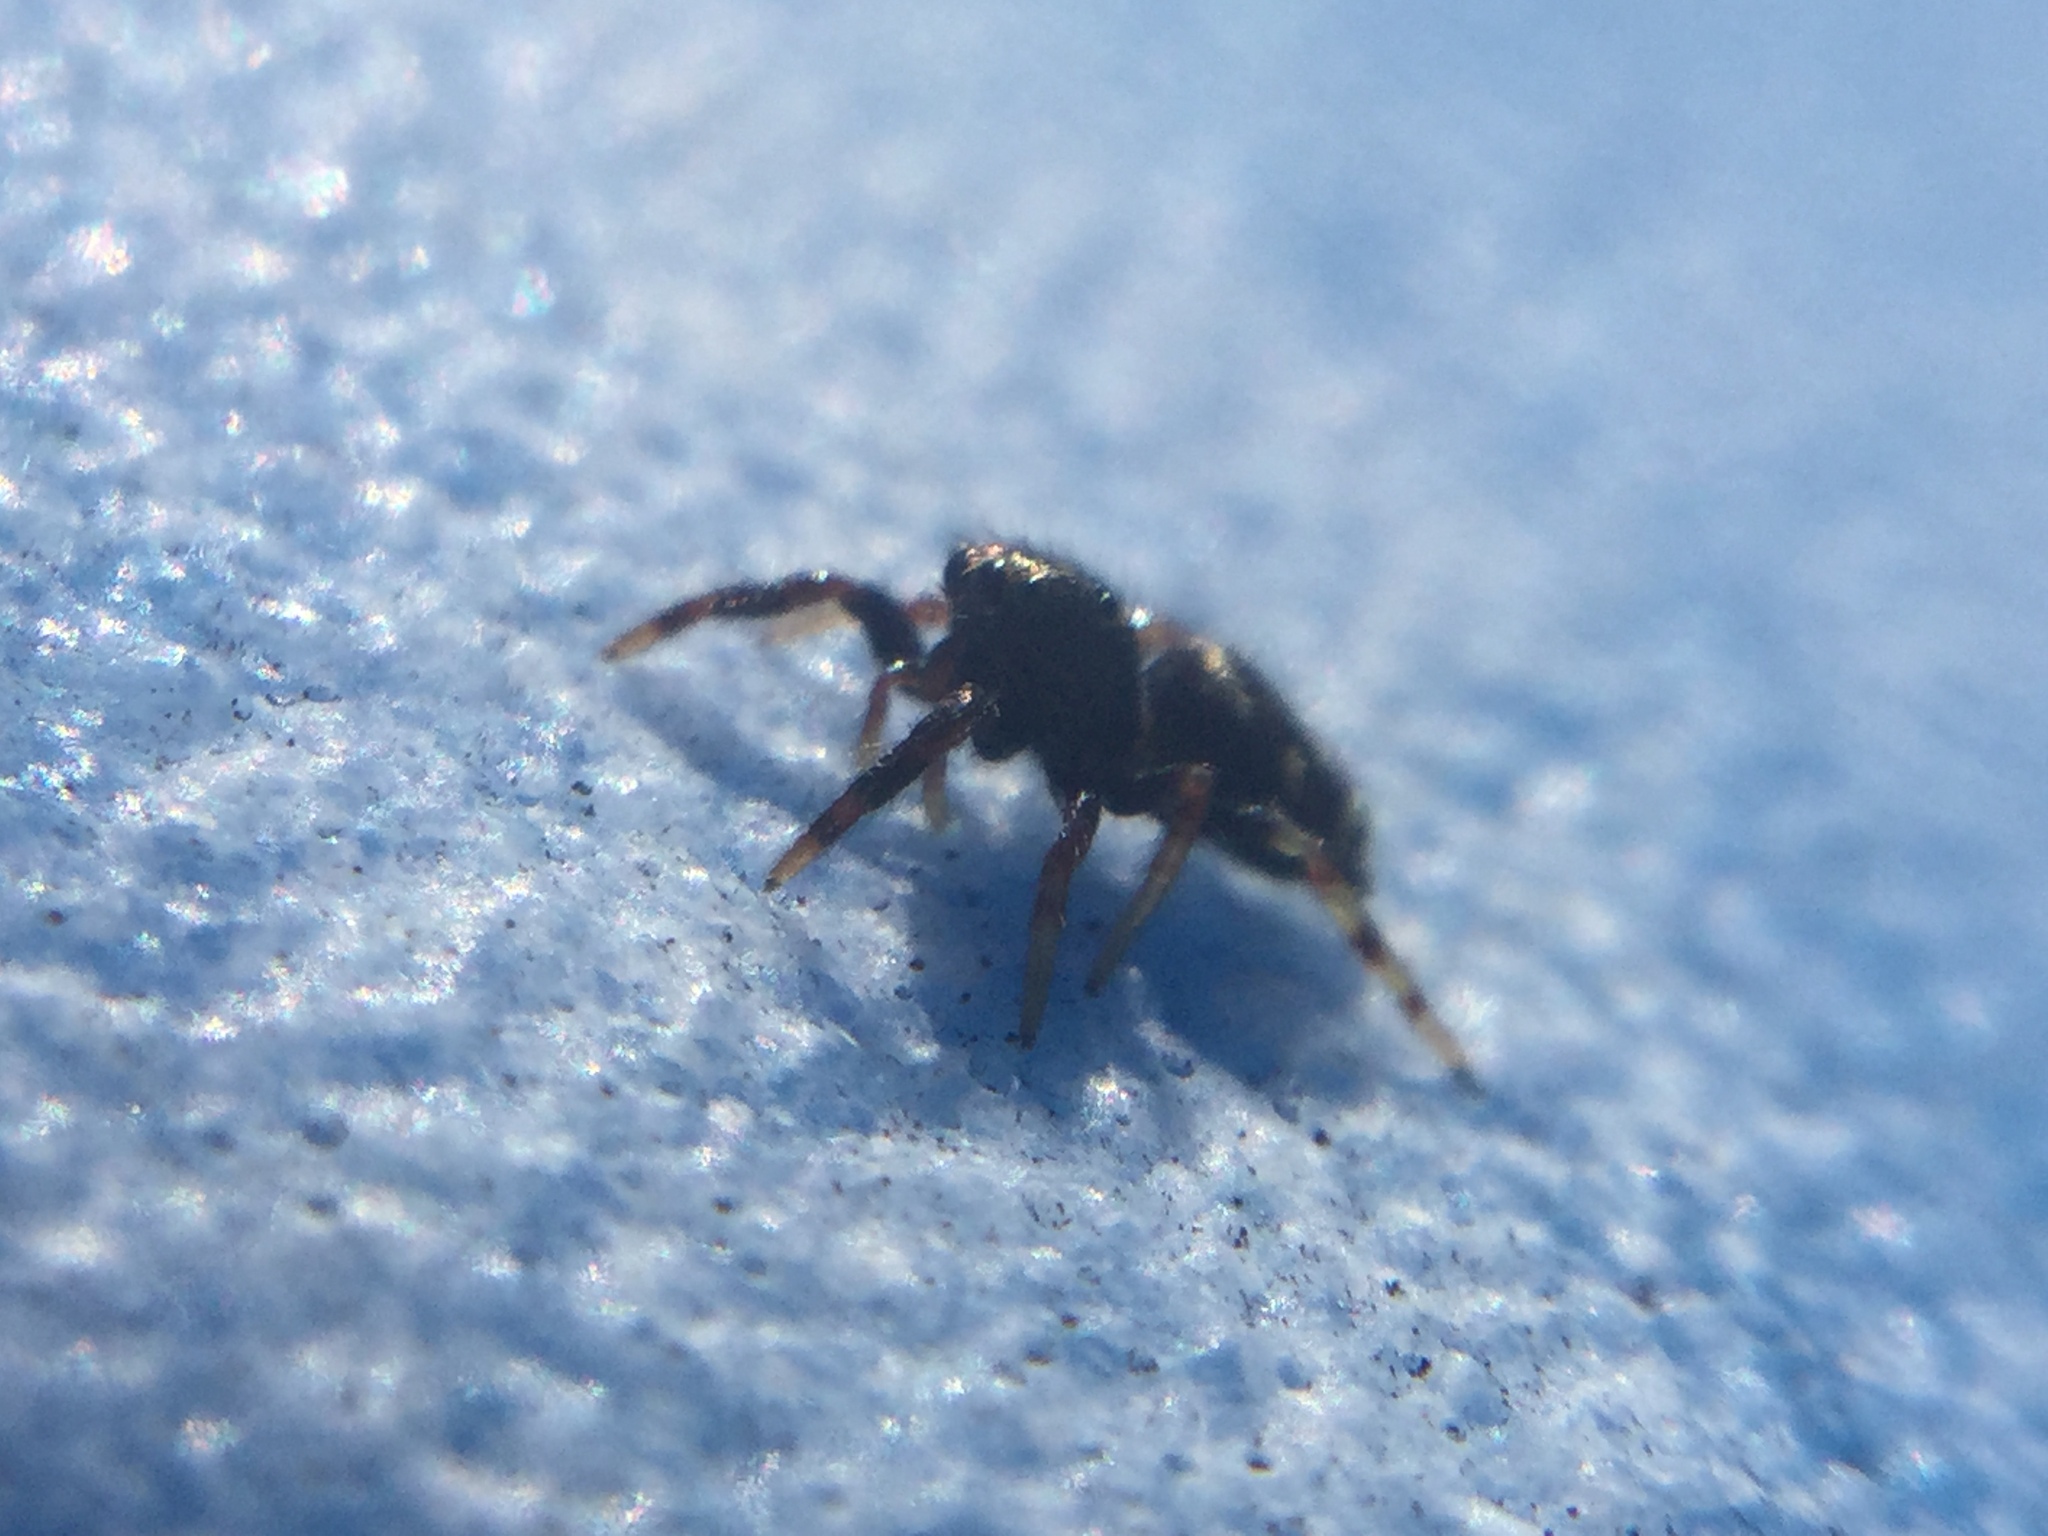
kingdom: Animalia
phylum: Arthropoda
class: Arachnida
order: Araneae
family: Salticidae
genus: Paraphidippus
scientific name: Paraphidippus aurantius
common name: Jumping spiders
